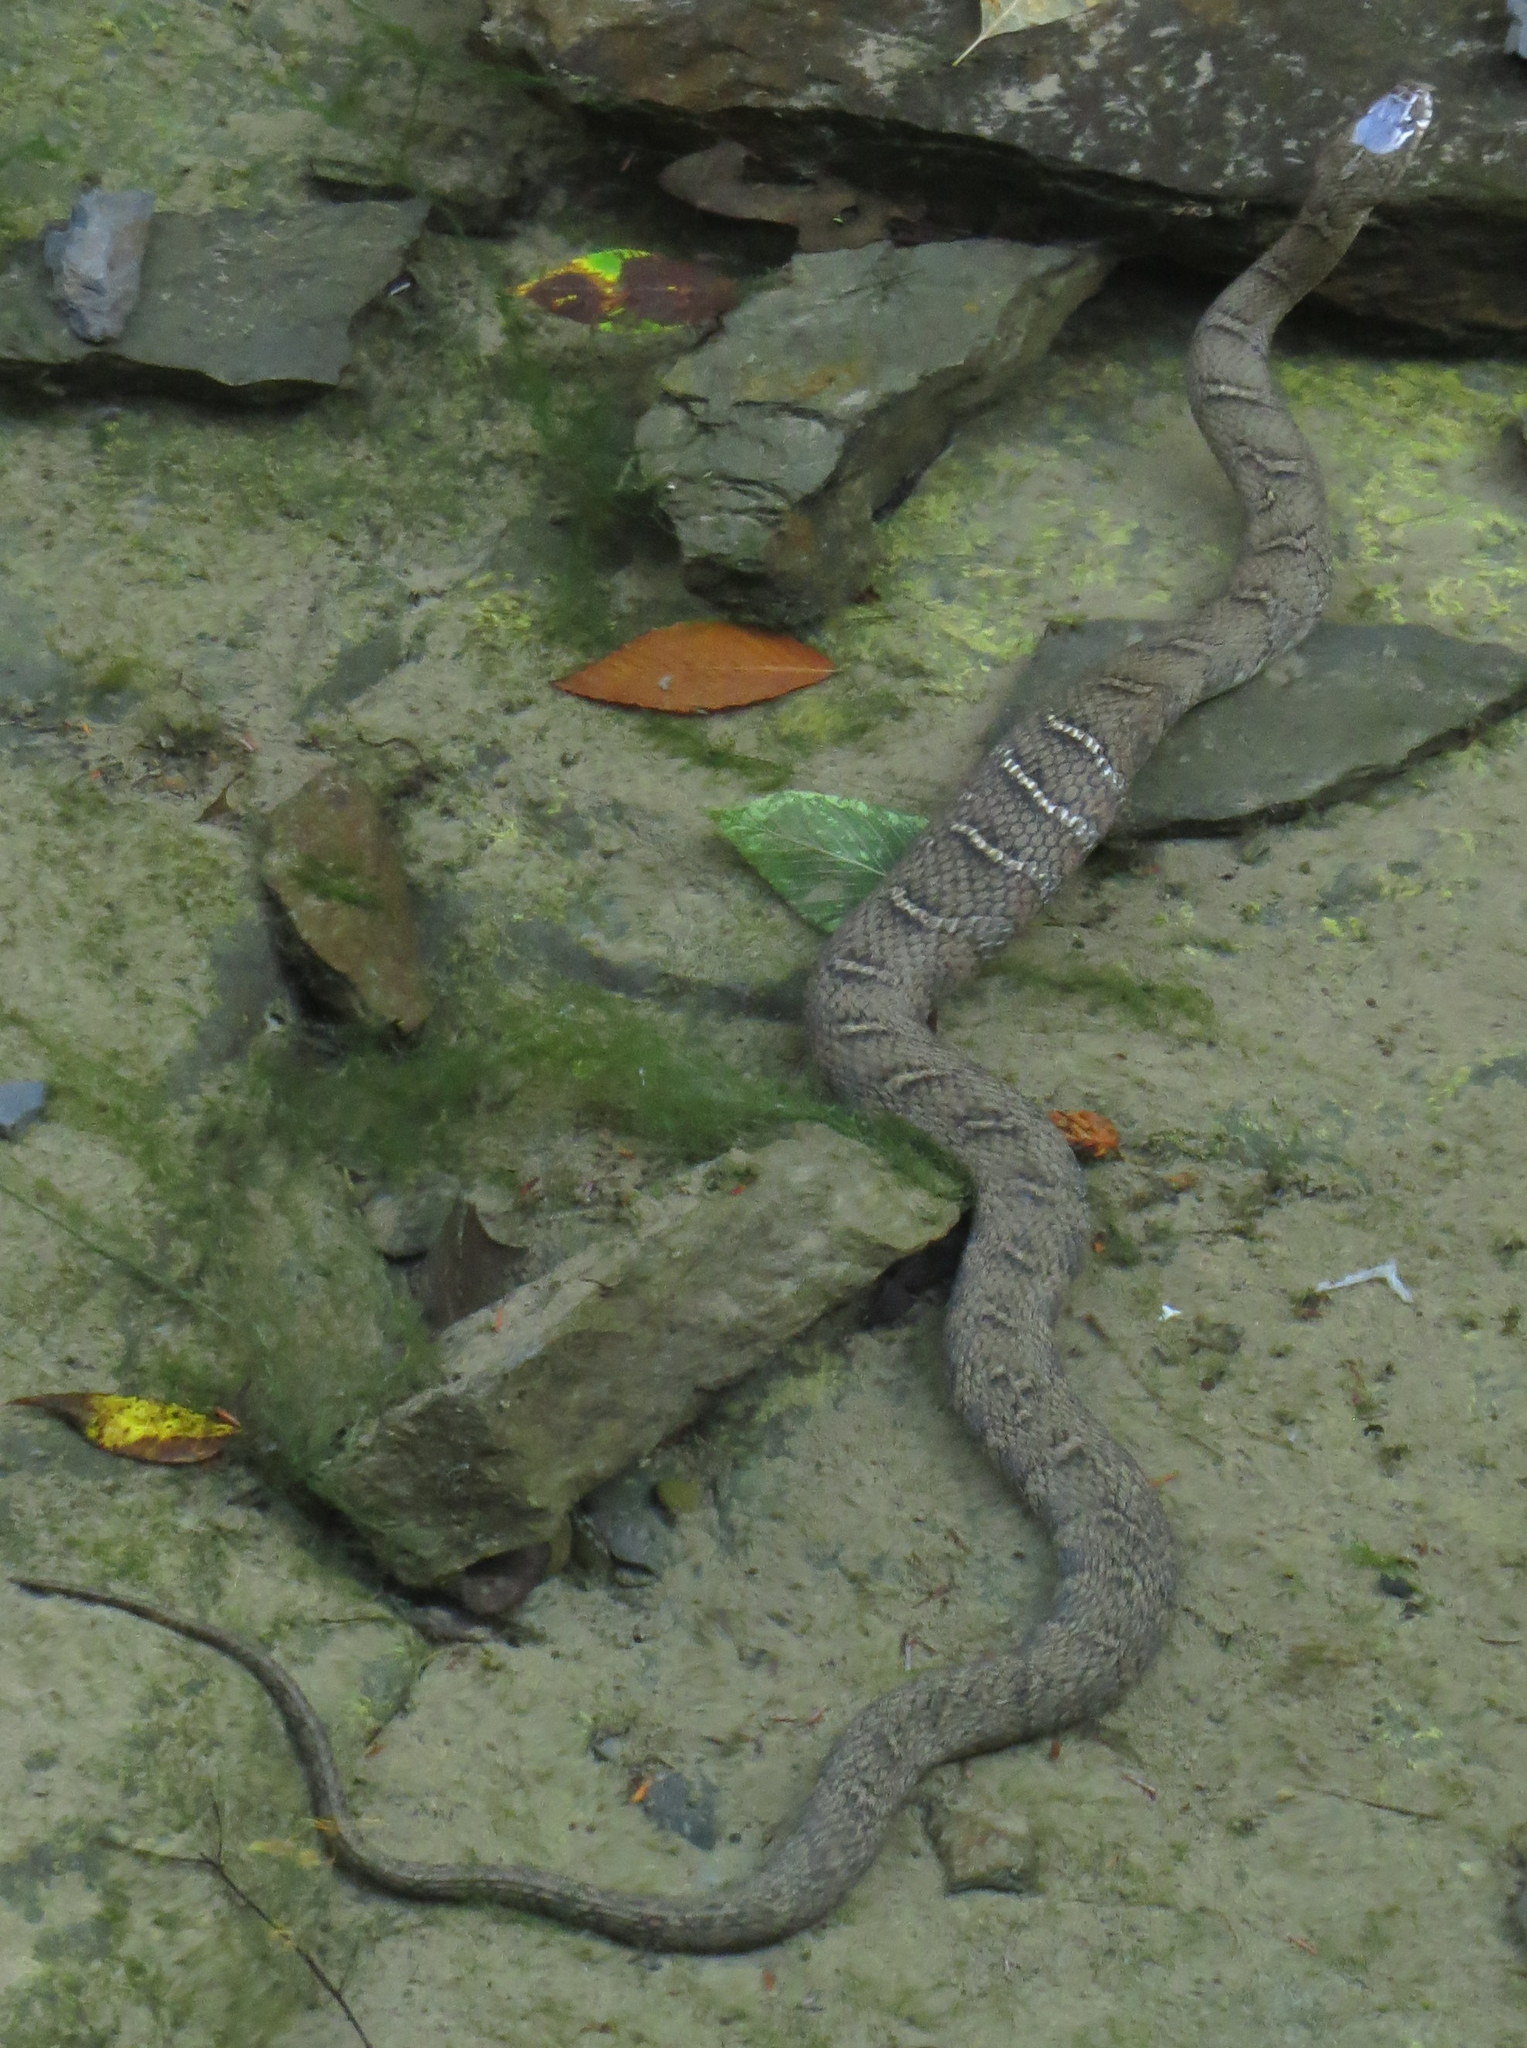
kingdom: Animalia
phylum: Chordata
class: Squamata
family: Colubridae
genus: Nerodia
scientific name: Nerodia sipedon
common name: Northern water snake
